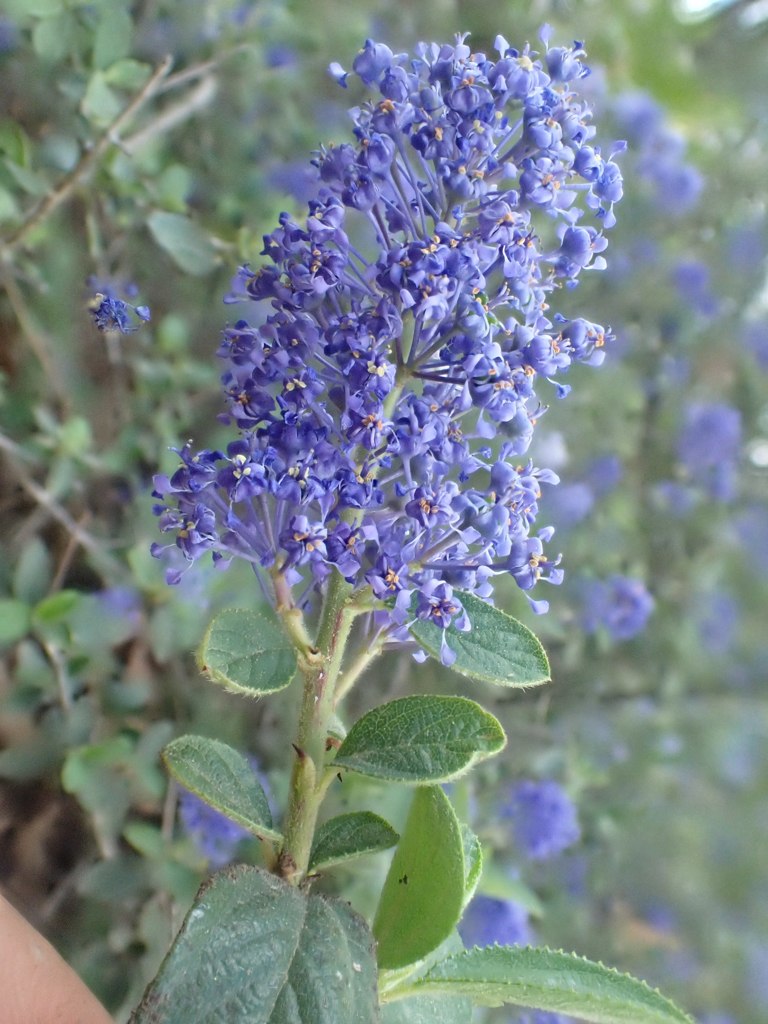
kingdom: Plantae
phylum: Tracheophyta
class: Magnoliopsida
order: Rosales
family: Rhamnaceae
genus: Ceanothus
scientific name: Ceanothus lemmonii
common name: Lemmon's ceanothus
